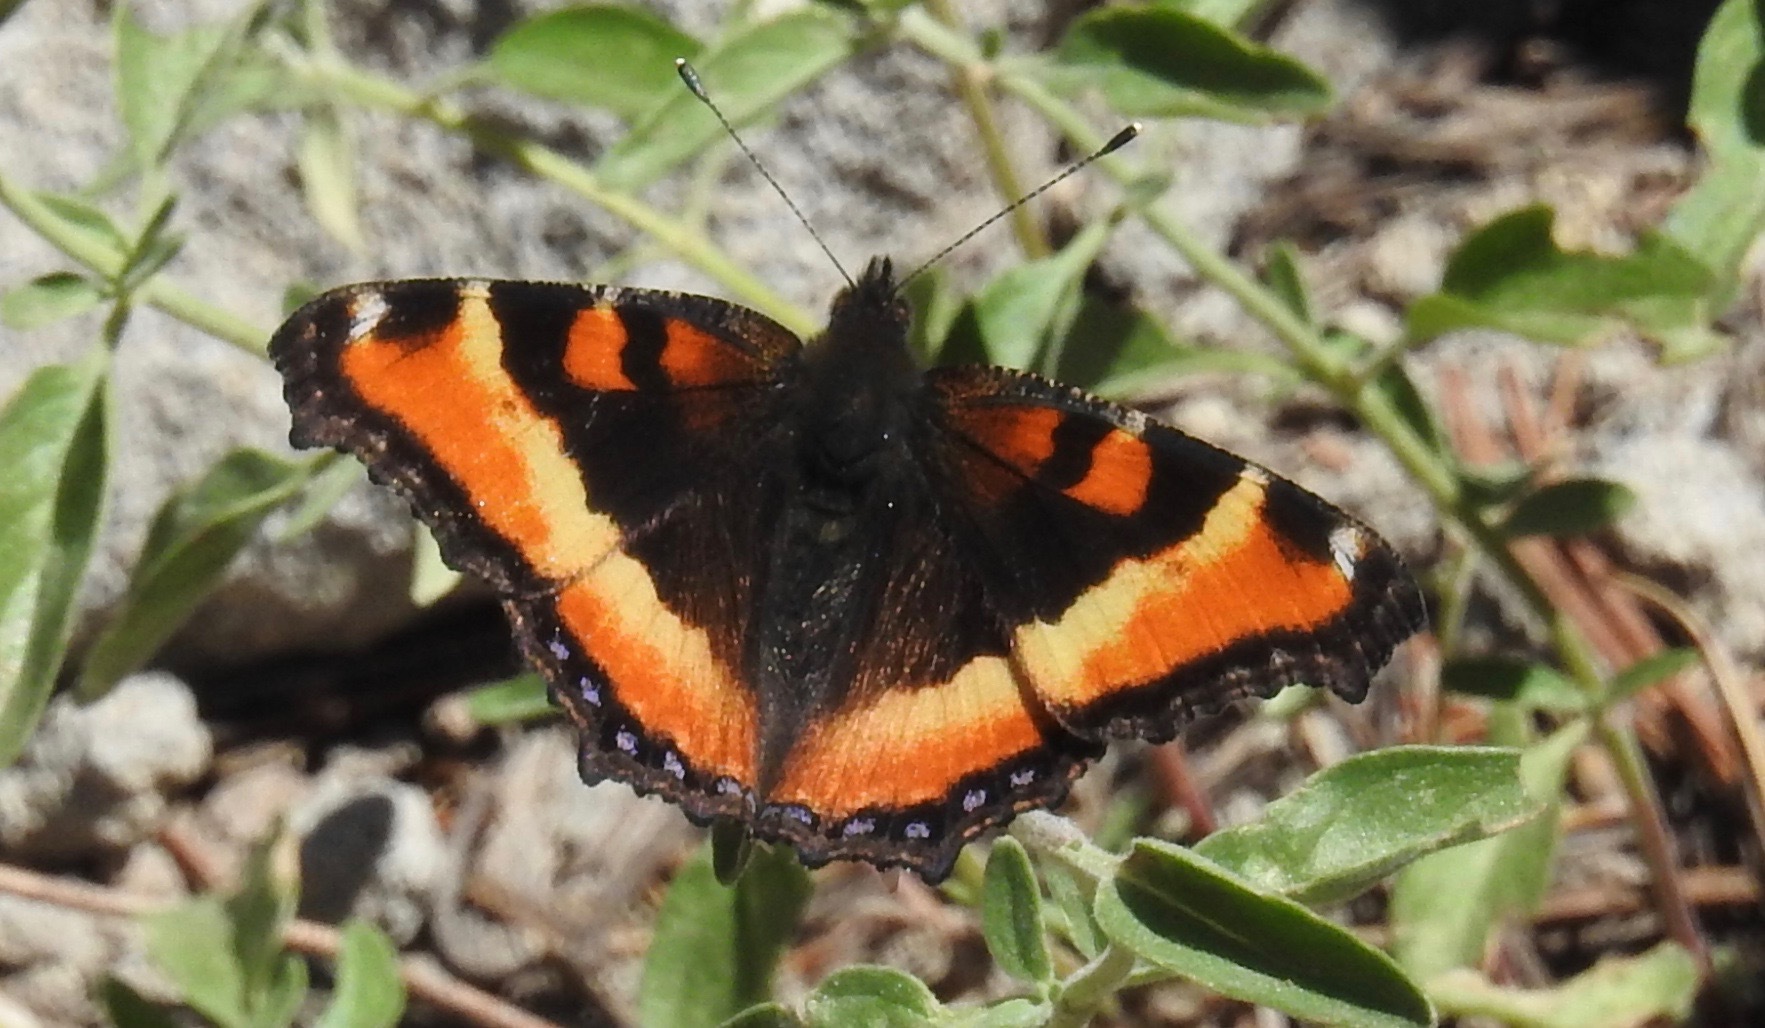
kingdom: Animalia
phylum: Arthropoda
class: Insecta
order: Lepidoptera
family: Nymphalidae
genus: Aglais
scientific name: Aglais milberti
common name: Milbert's tortoiseshell
